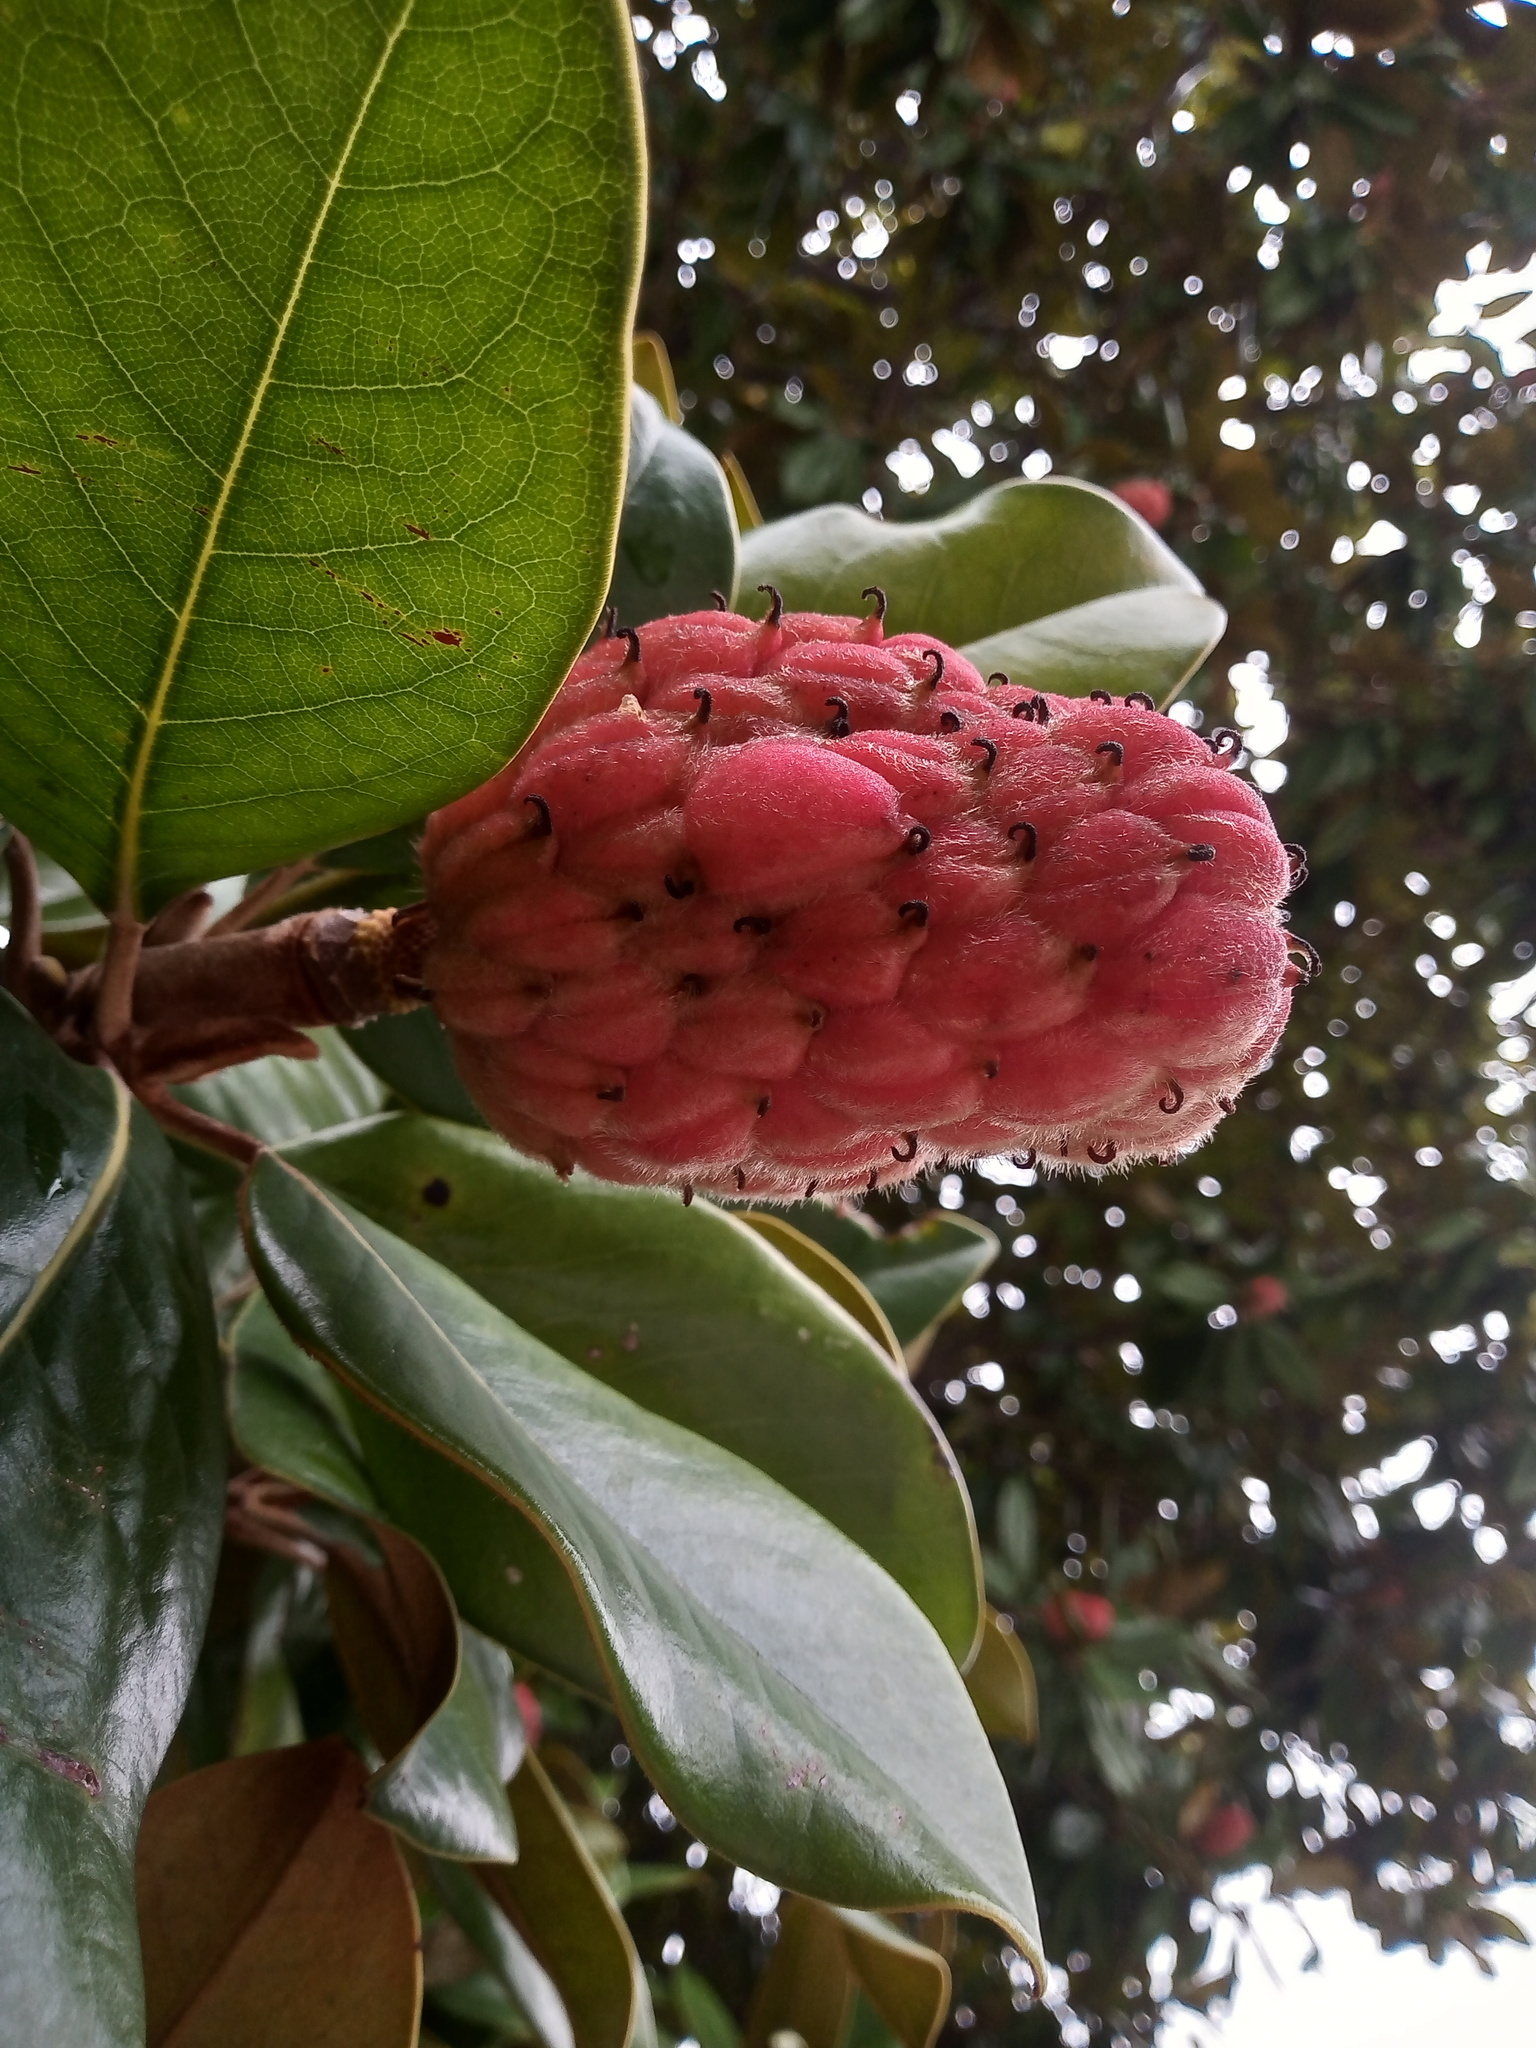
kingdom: Plantae
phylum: Tracheophyta
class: Magnoliopsida
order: Magnoliales
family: Magnoliaceae
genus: Magnolia
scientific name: Magnolia grandiflora
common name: Southern magnolia
